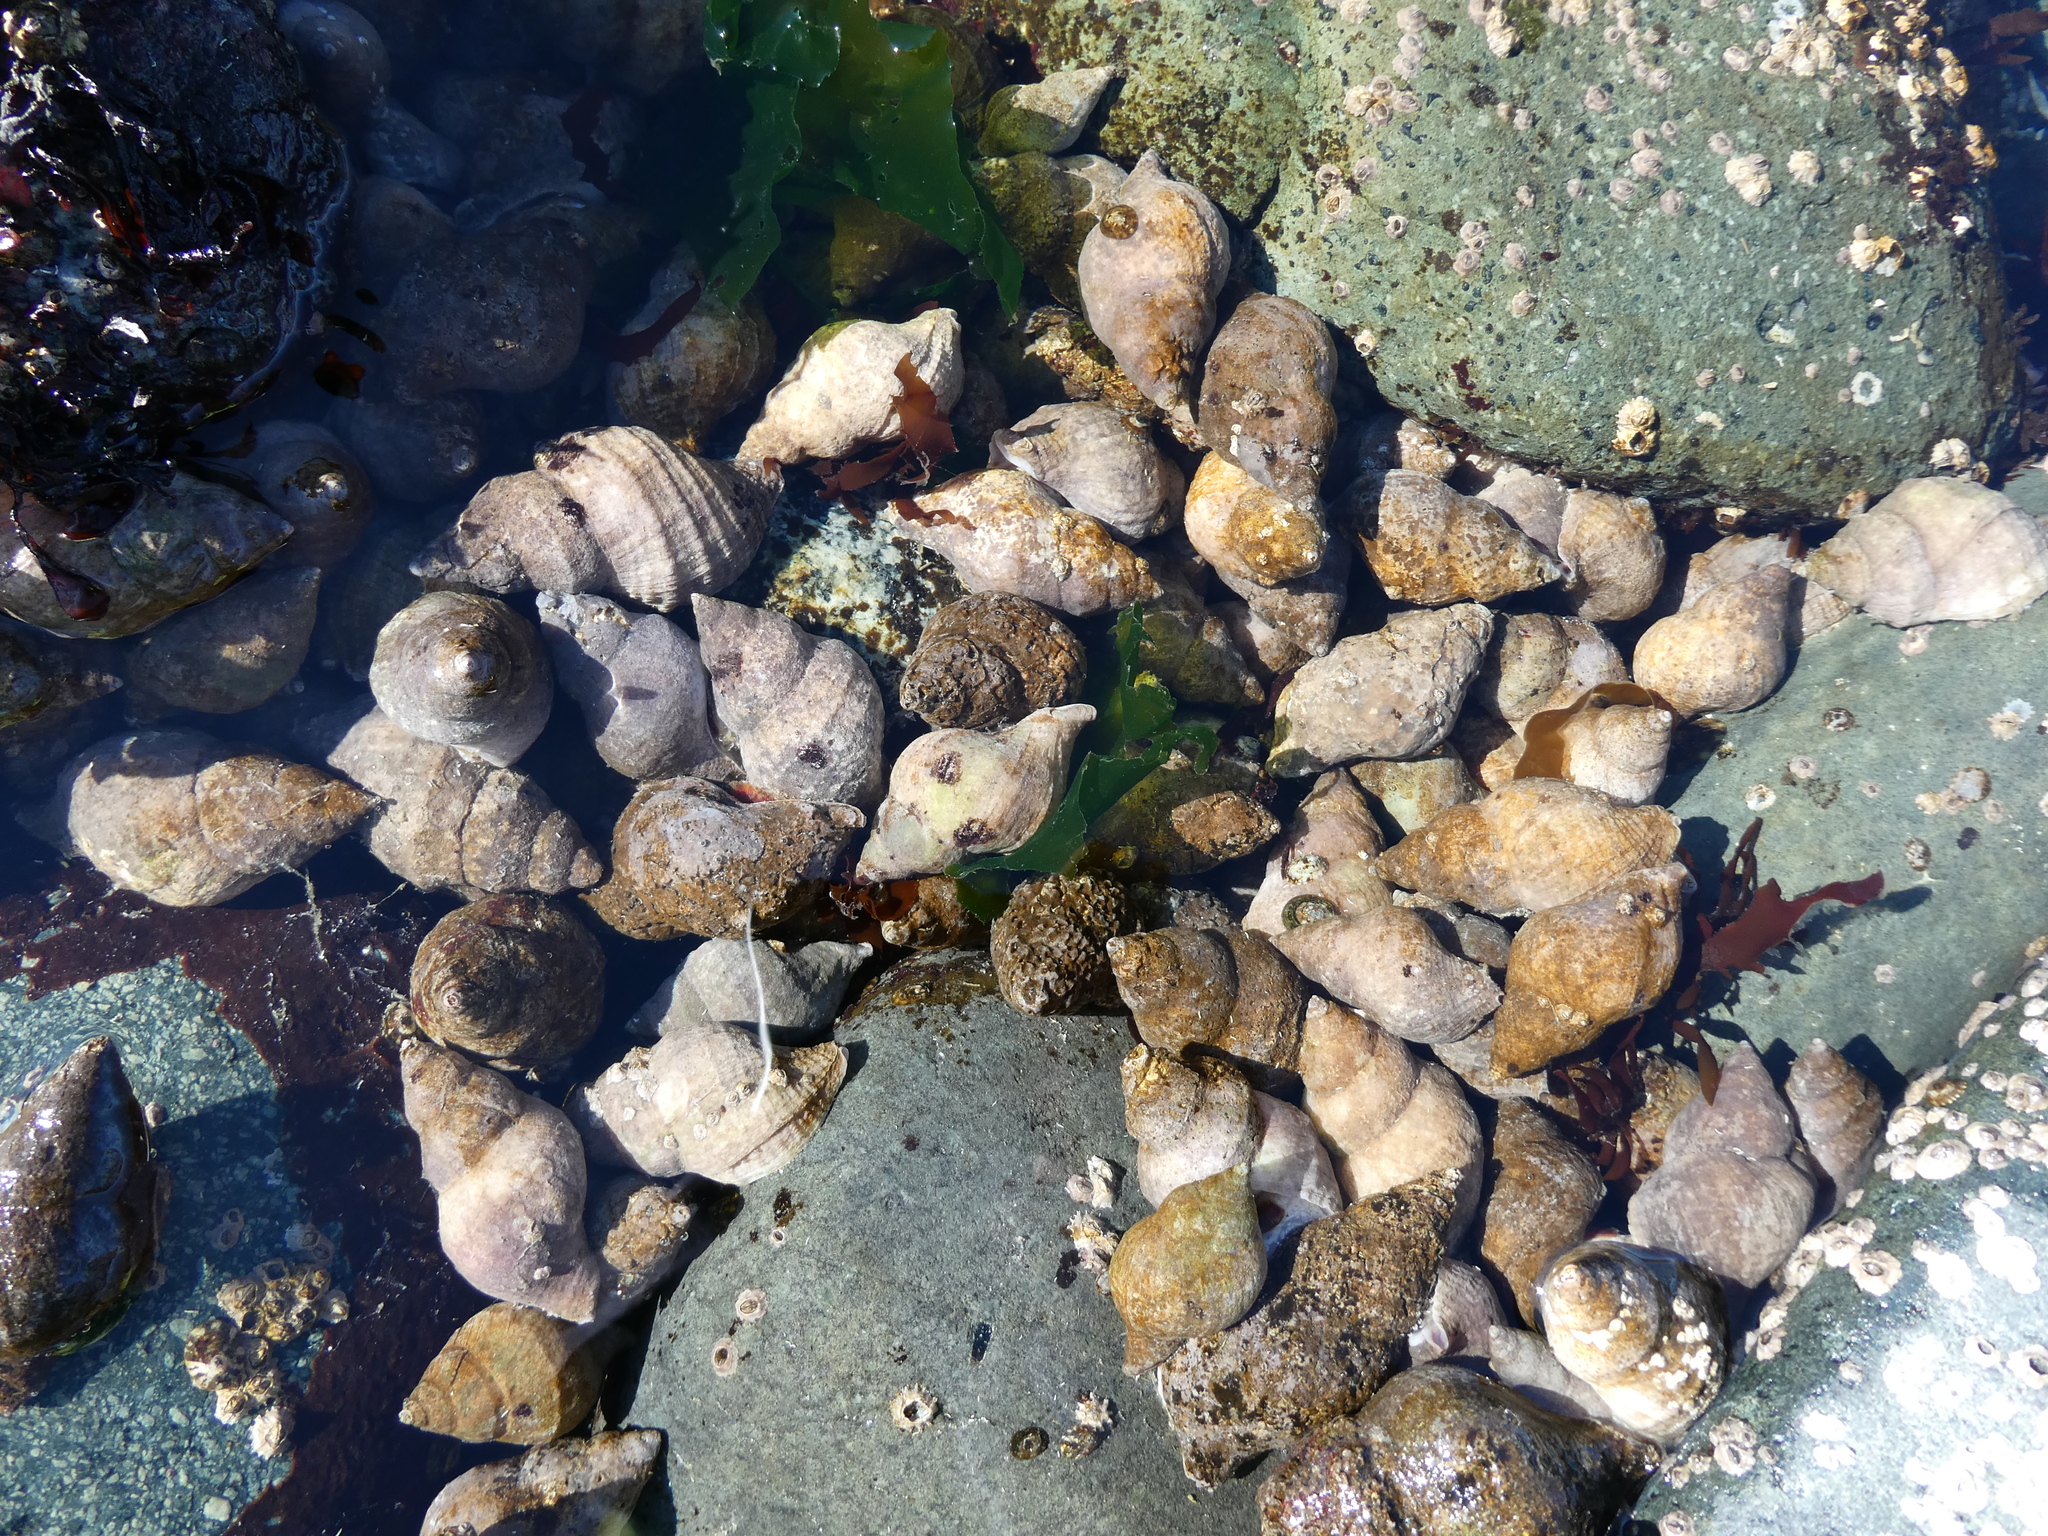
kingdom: Animalia
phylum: Mollusca
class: Gastropoda
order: Neogastropoda
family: Muricidae
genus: Nucella
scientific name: Nucella lamellosa
